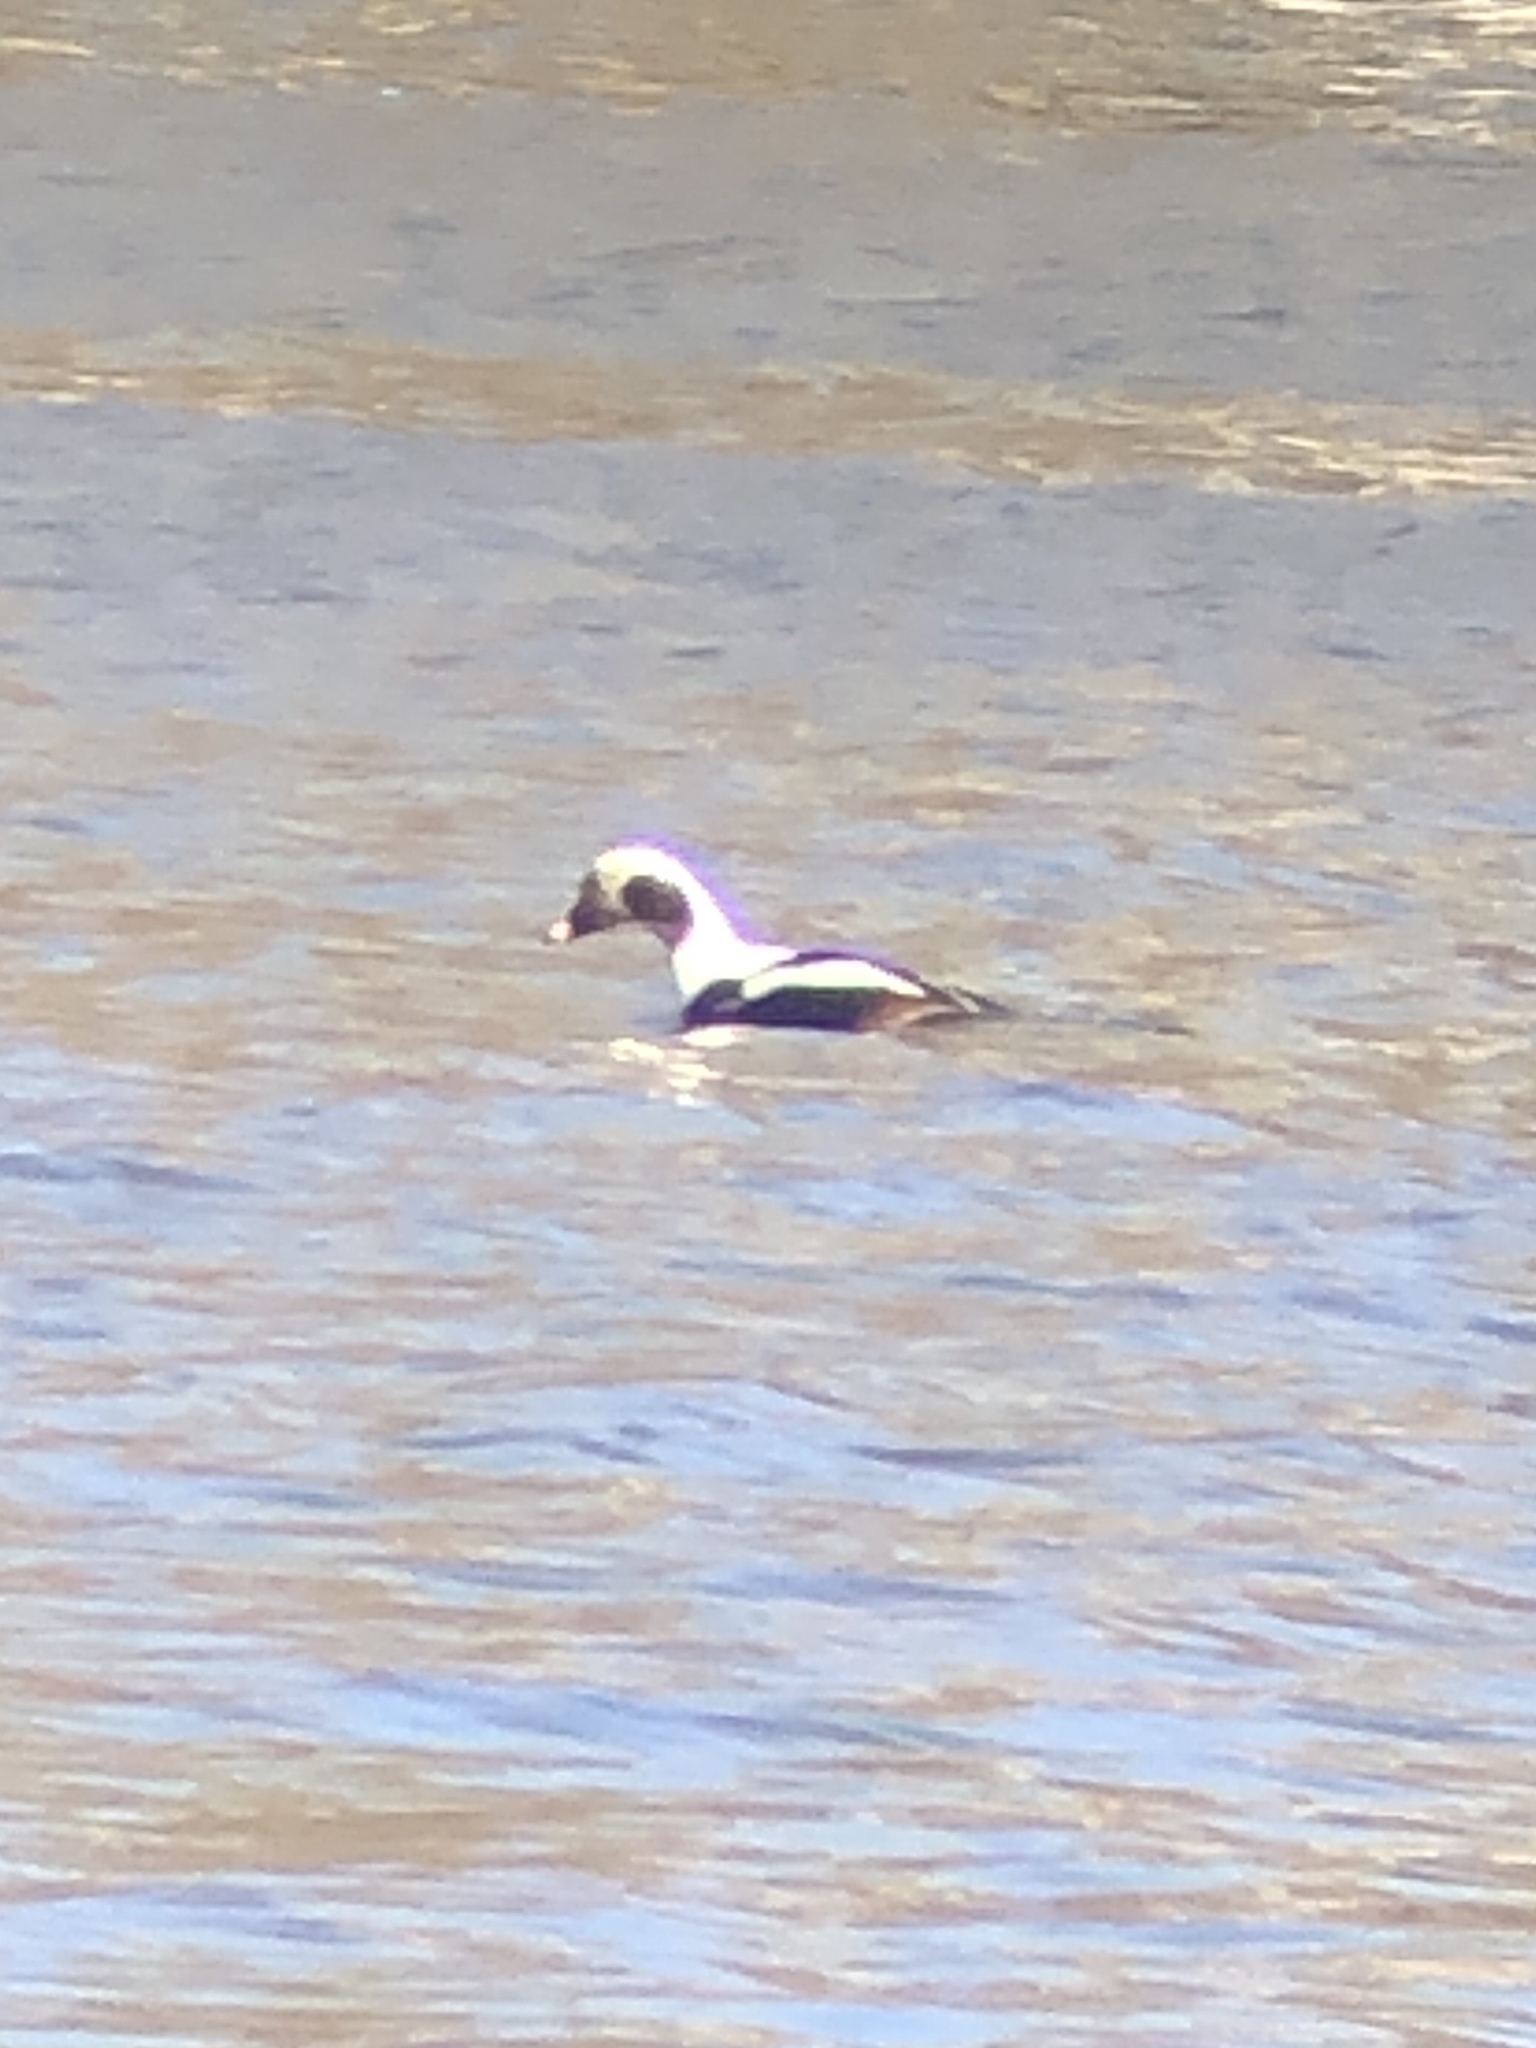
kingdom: Animalia
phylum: Chordata
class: Aves
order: Anseriformes
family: Anatidae
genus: Clangula
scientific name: Clangula hyemalis
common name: Long-tailed duck
